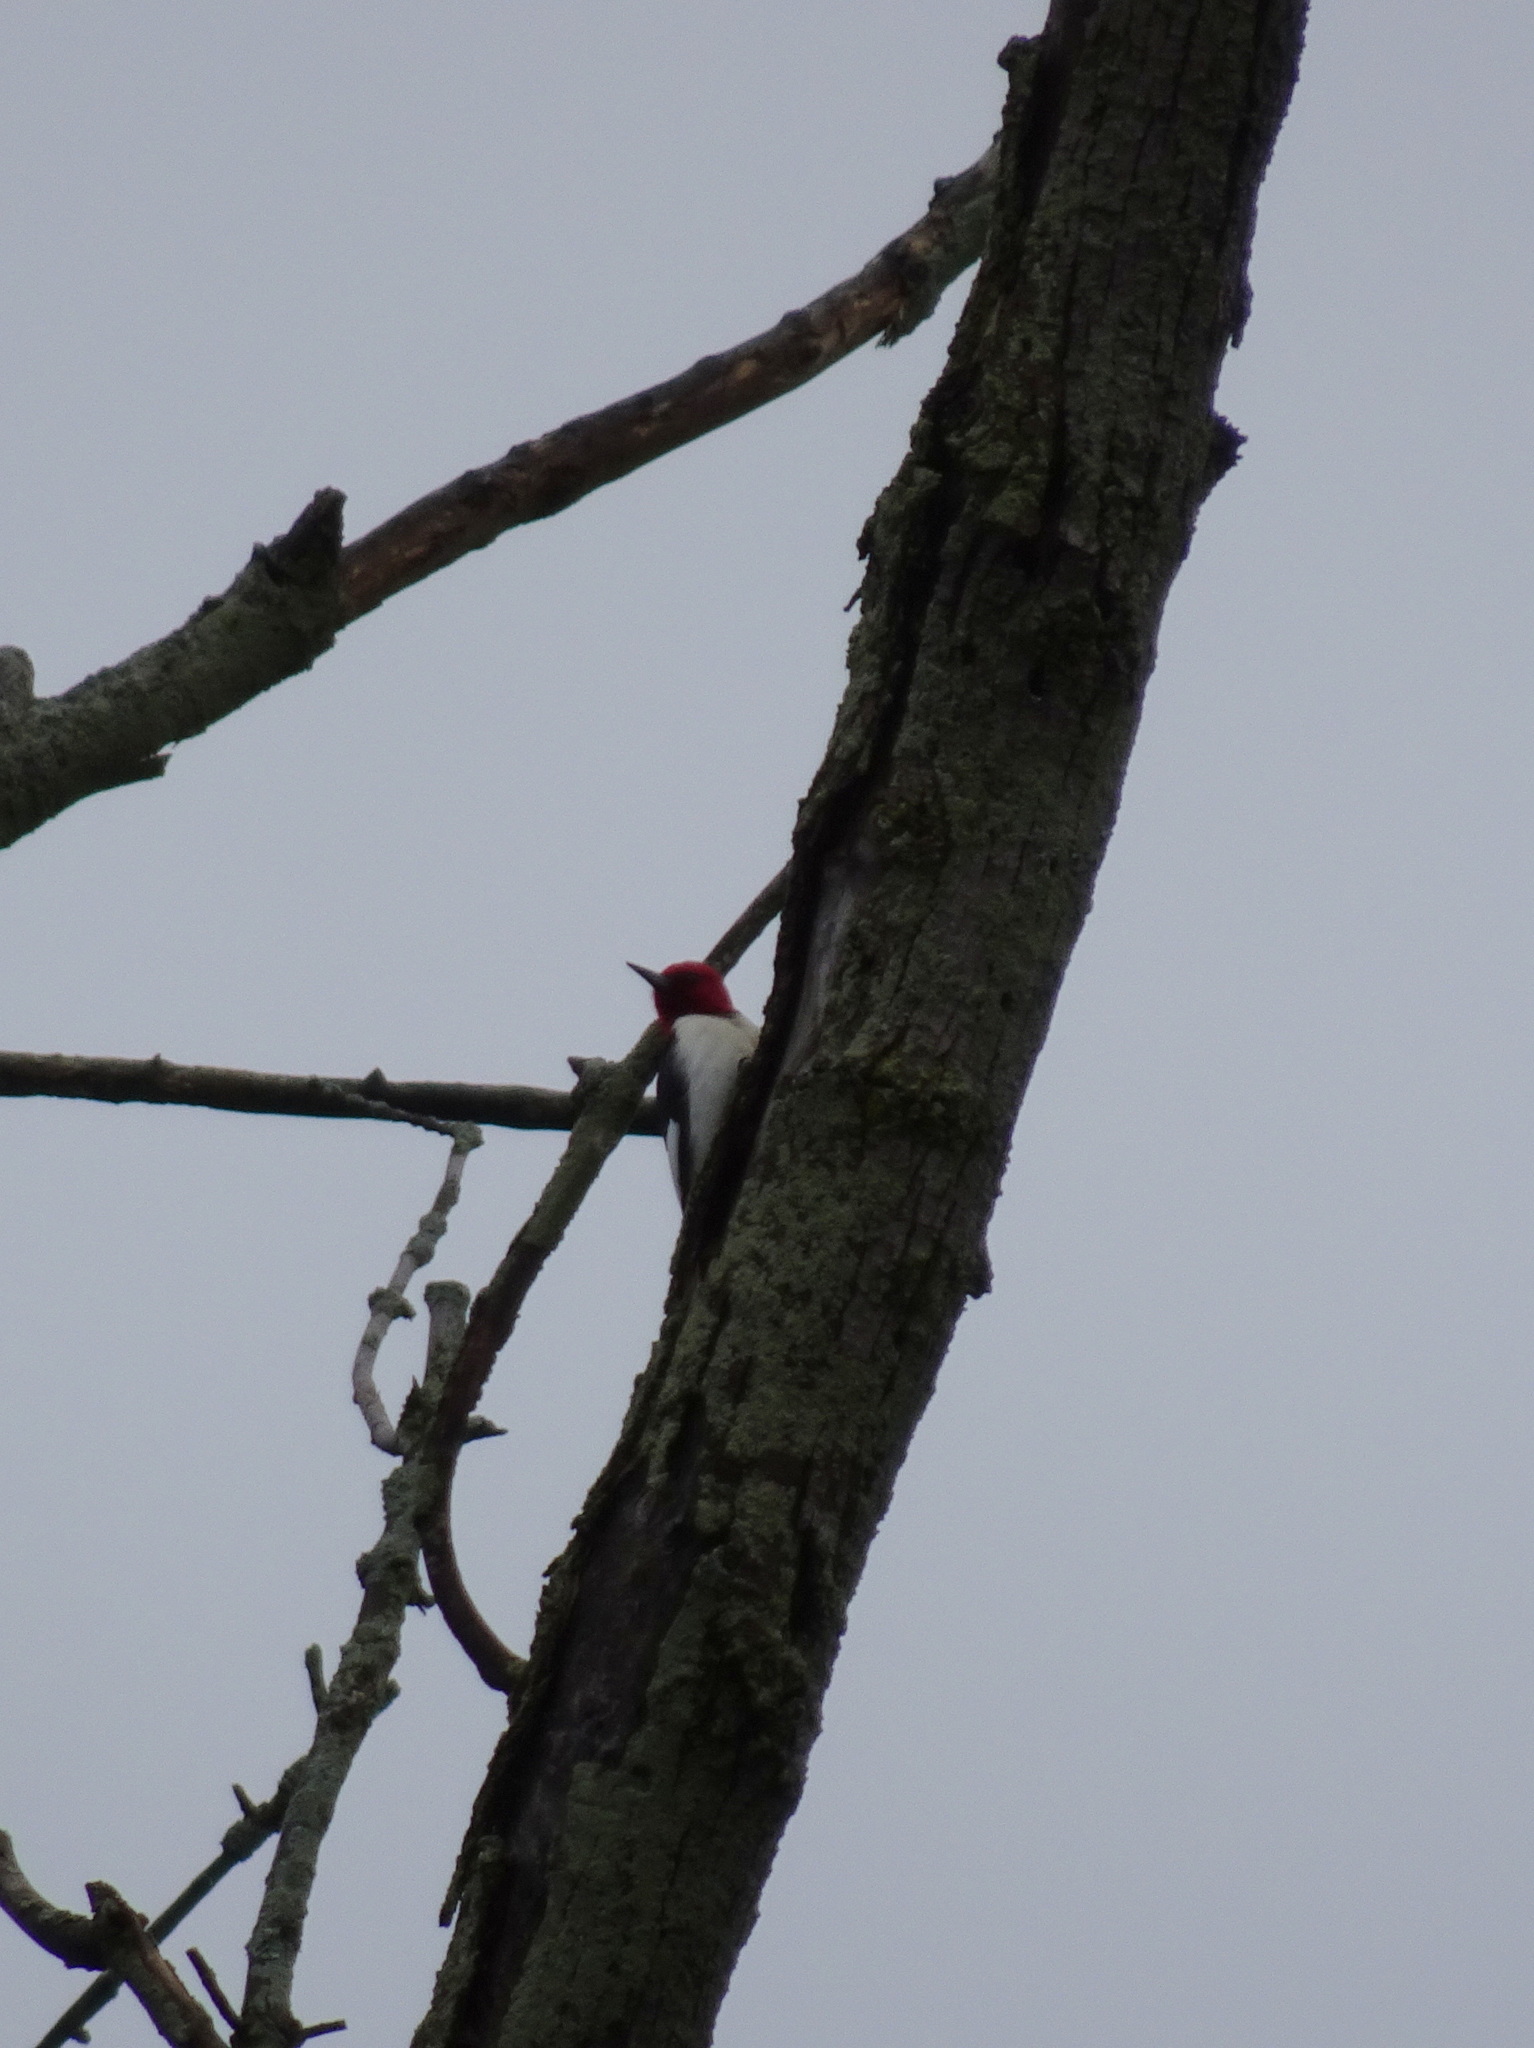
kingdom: Animalia
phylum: Chordata
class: Aves
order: Piciformes
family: Picidae
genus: Melanerpes
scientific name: Melanerpes erythrocephalus
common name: Red-headed woodpecker
